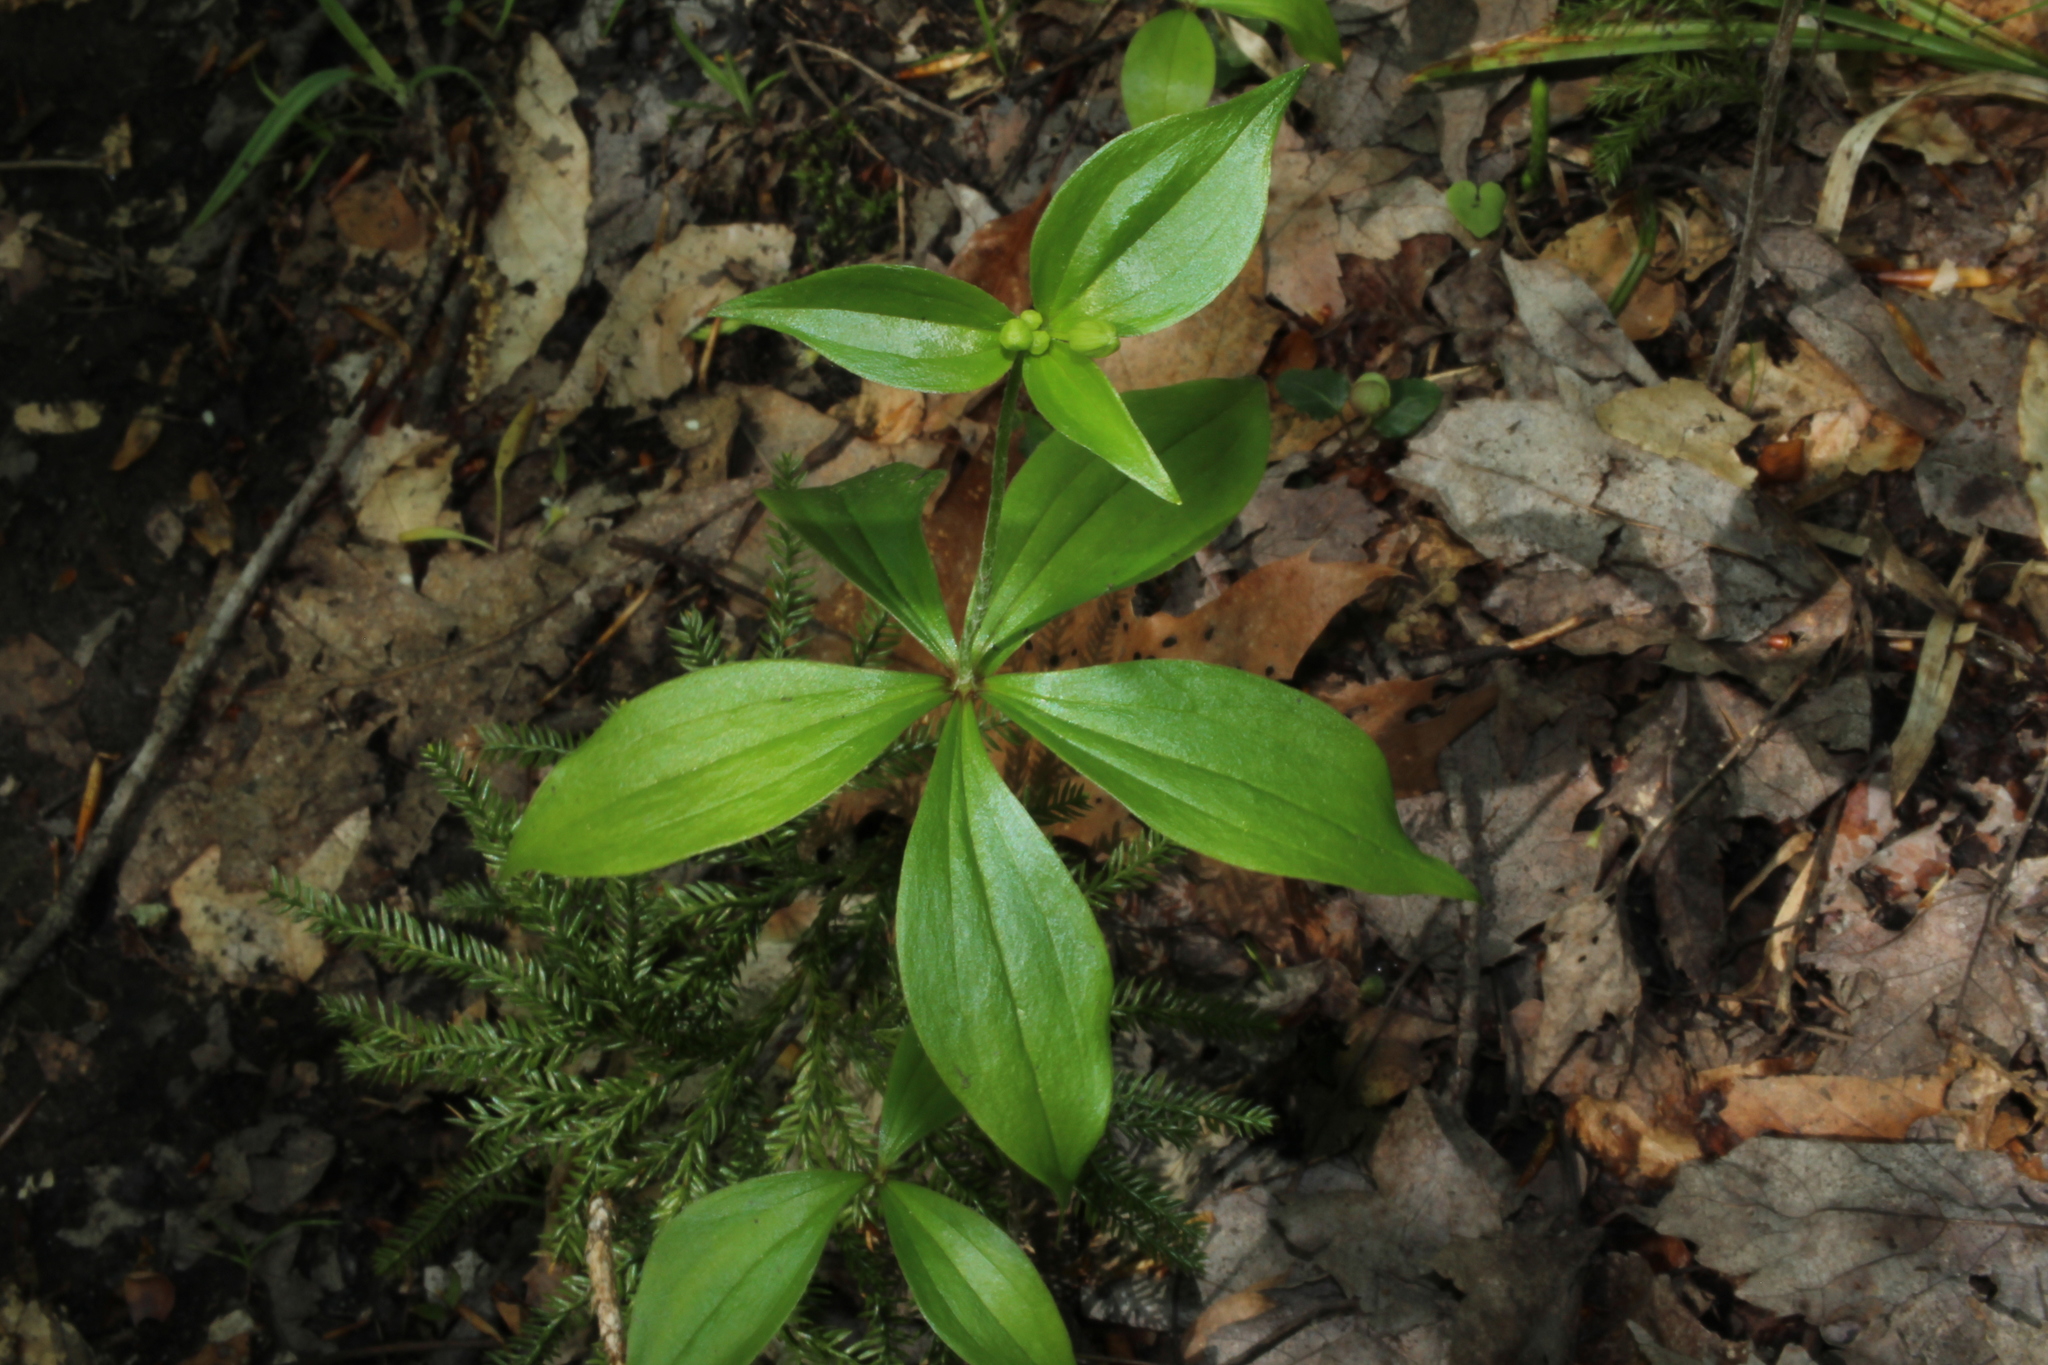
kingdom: Plantae
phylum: Tracheophyta
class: Liliopsida
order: Liliales
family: Liliaceae
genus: Medeola
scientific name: Medeola virginiana
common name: Indian cucumber-root
